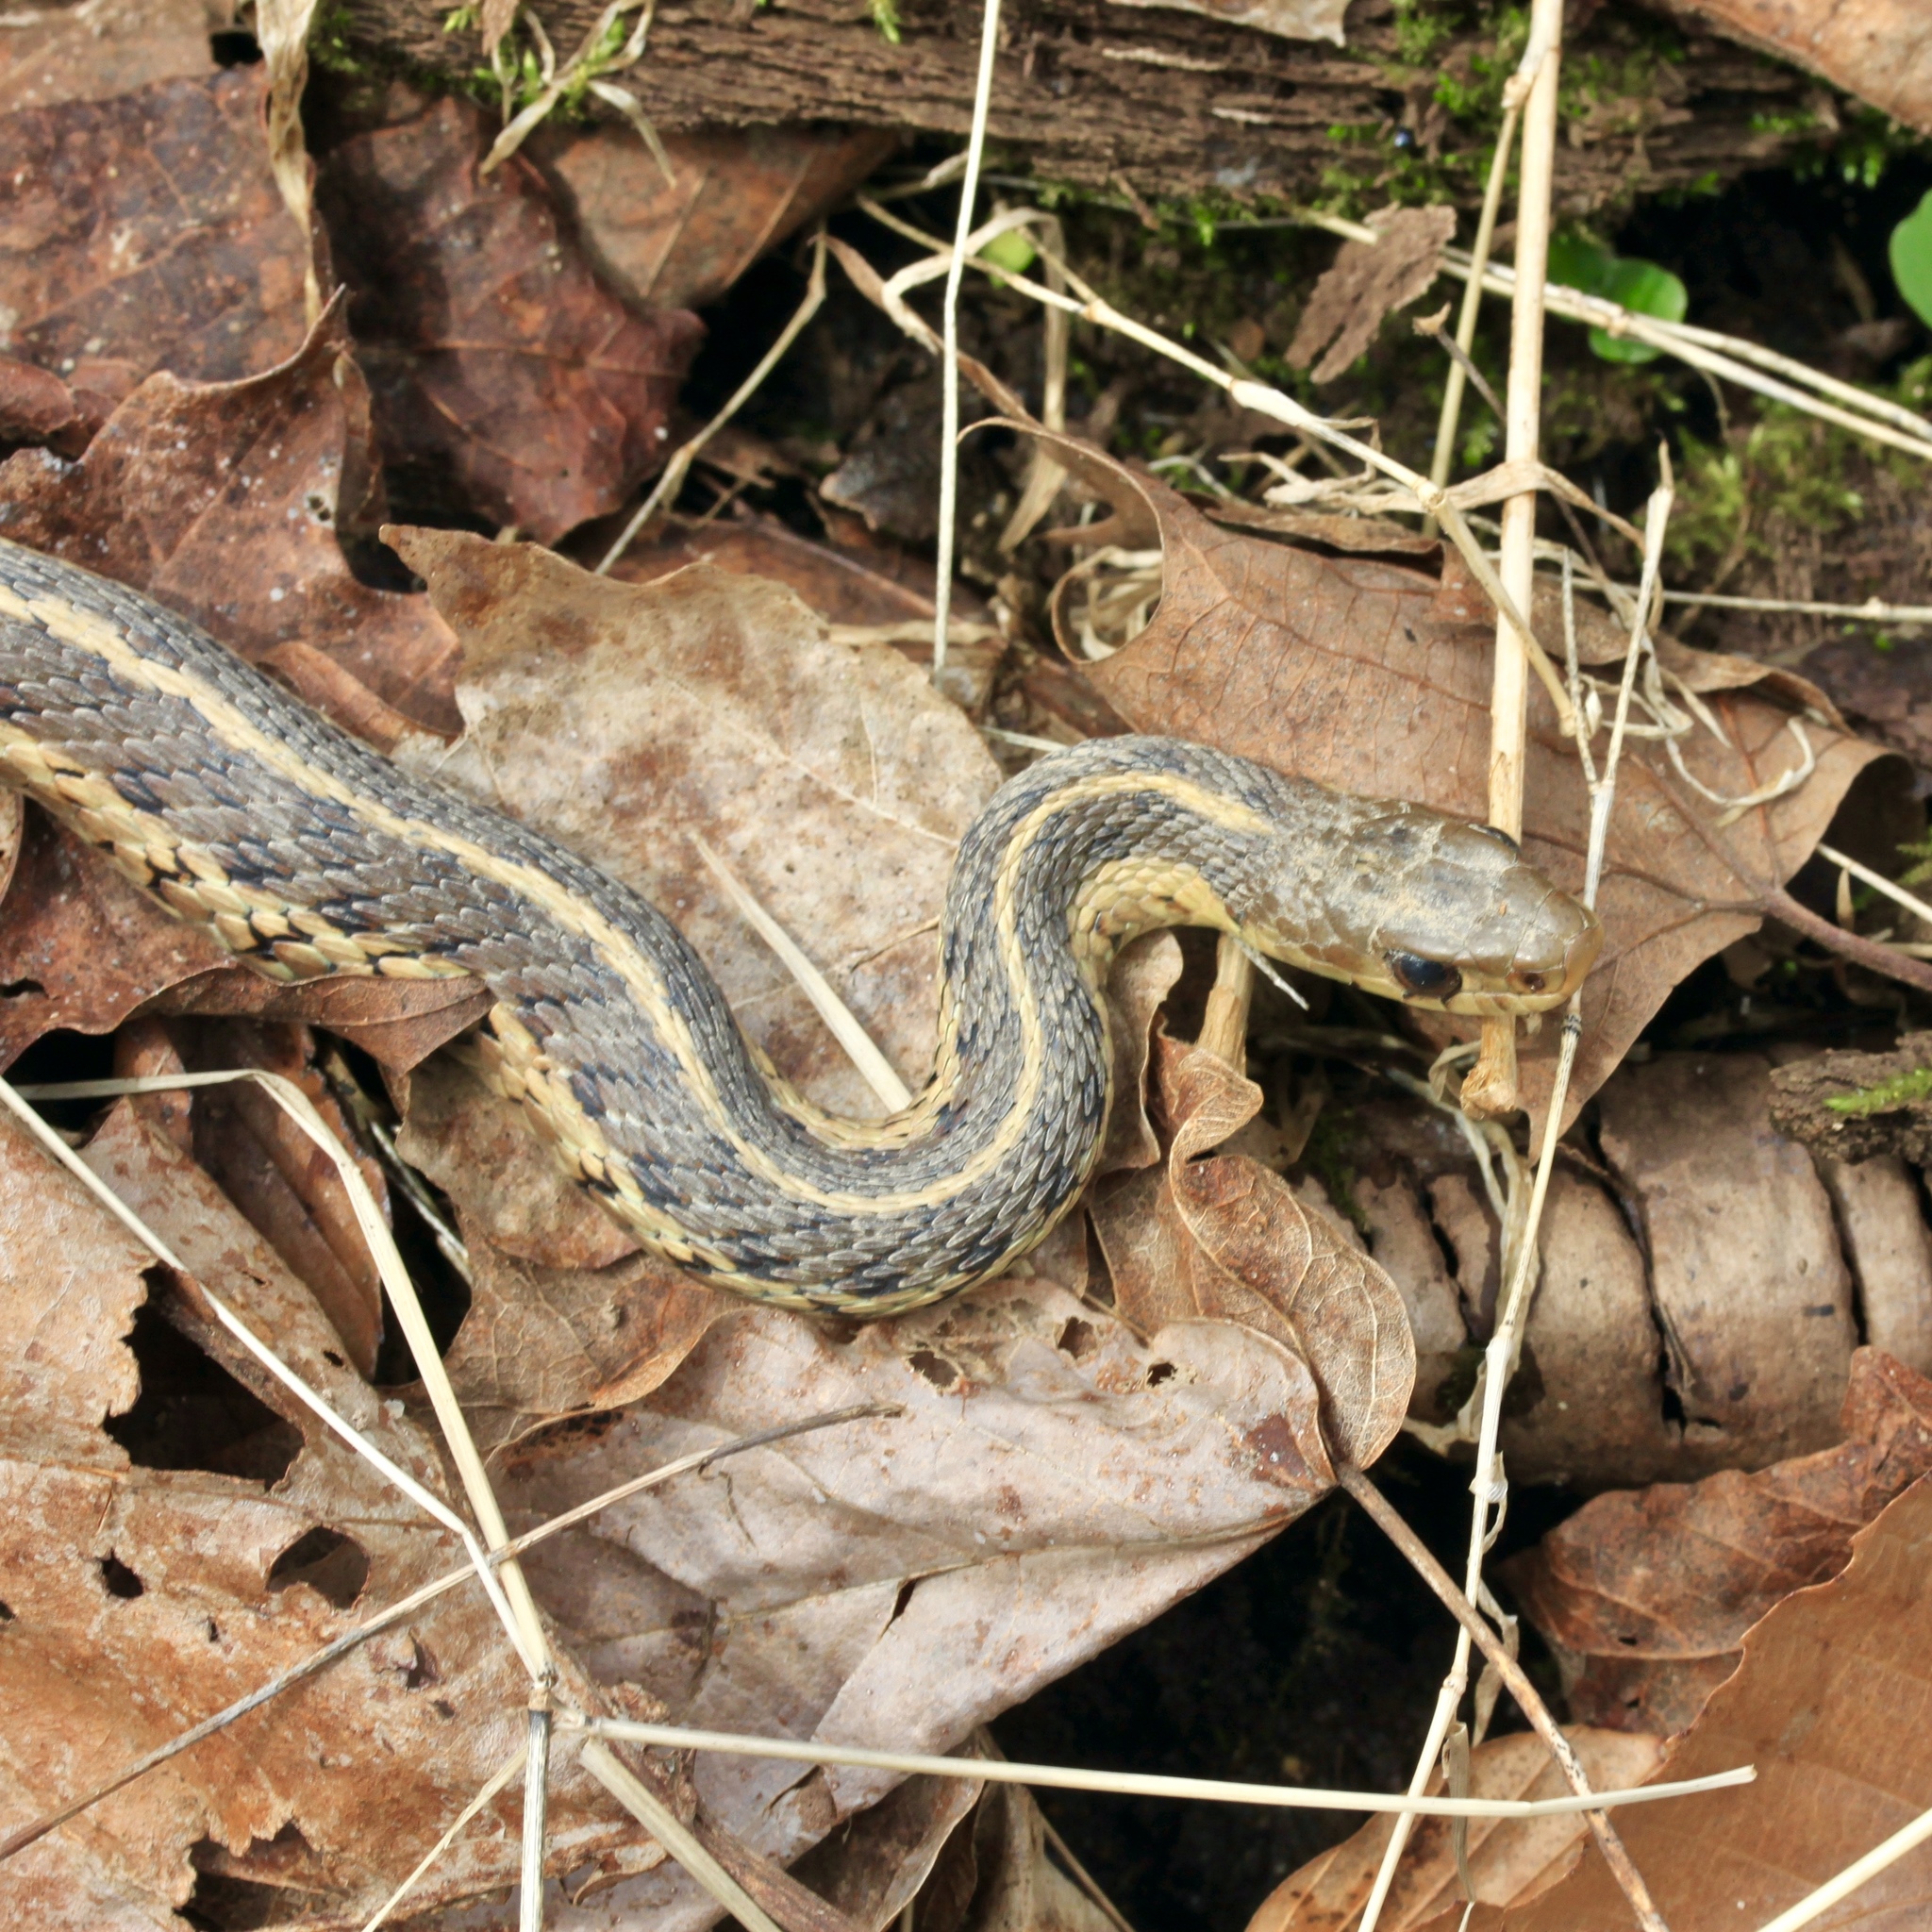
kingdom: Animalia
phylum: Chordata
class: Squamata
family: Colubridae
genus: Thamnophis
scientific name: Thamnophis sirtalis
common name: Common garter snake
